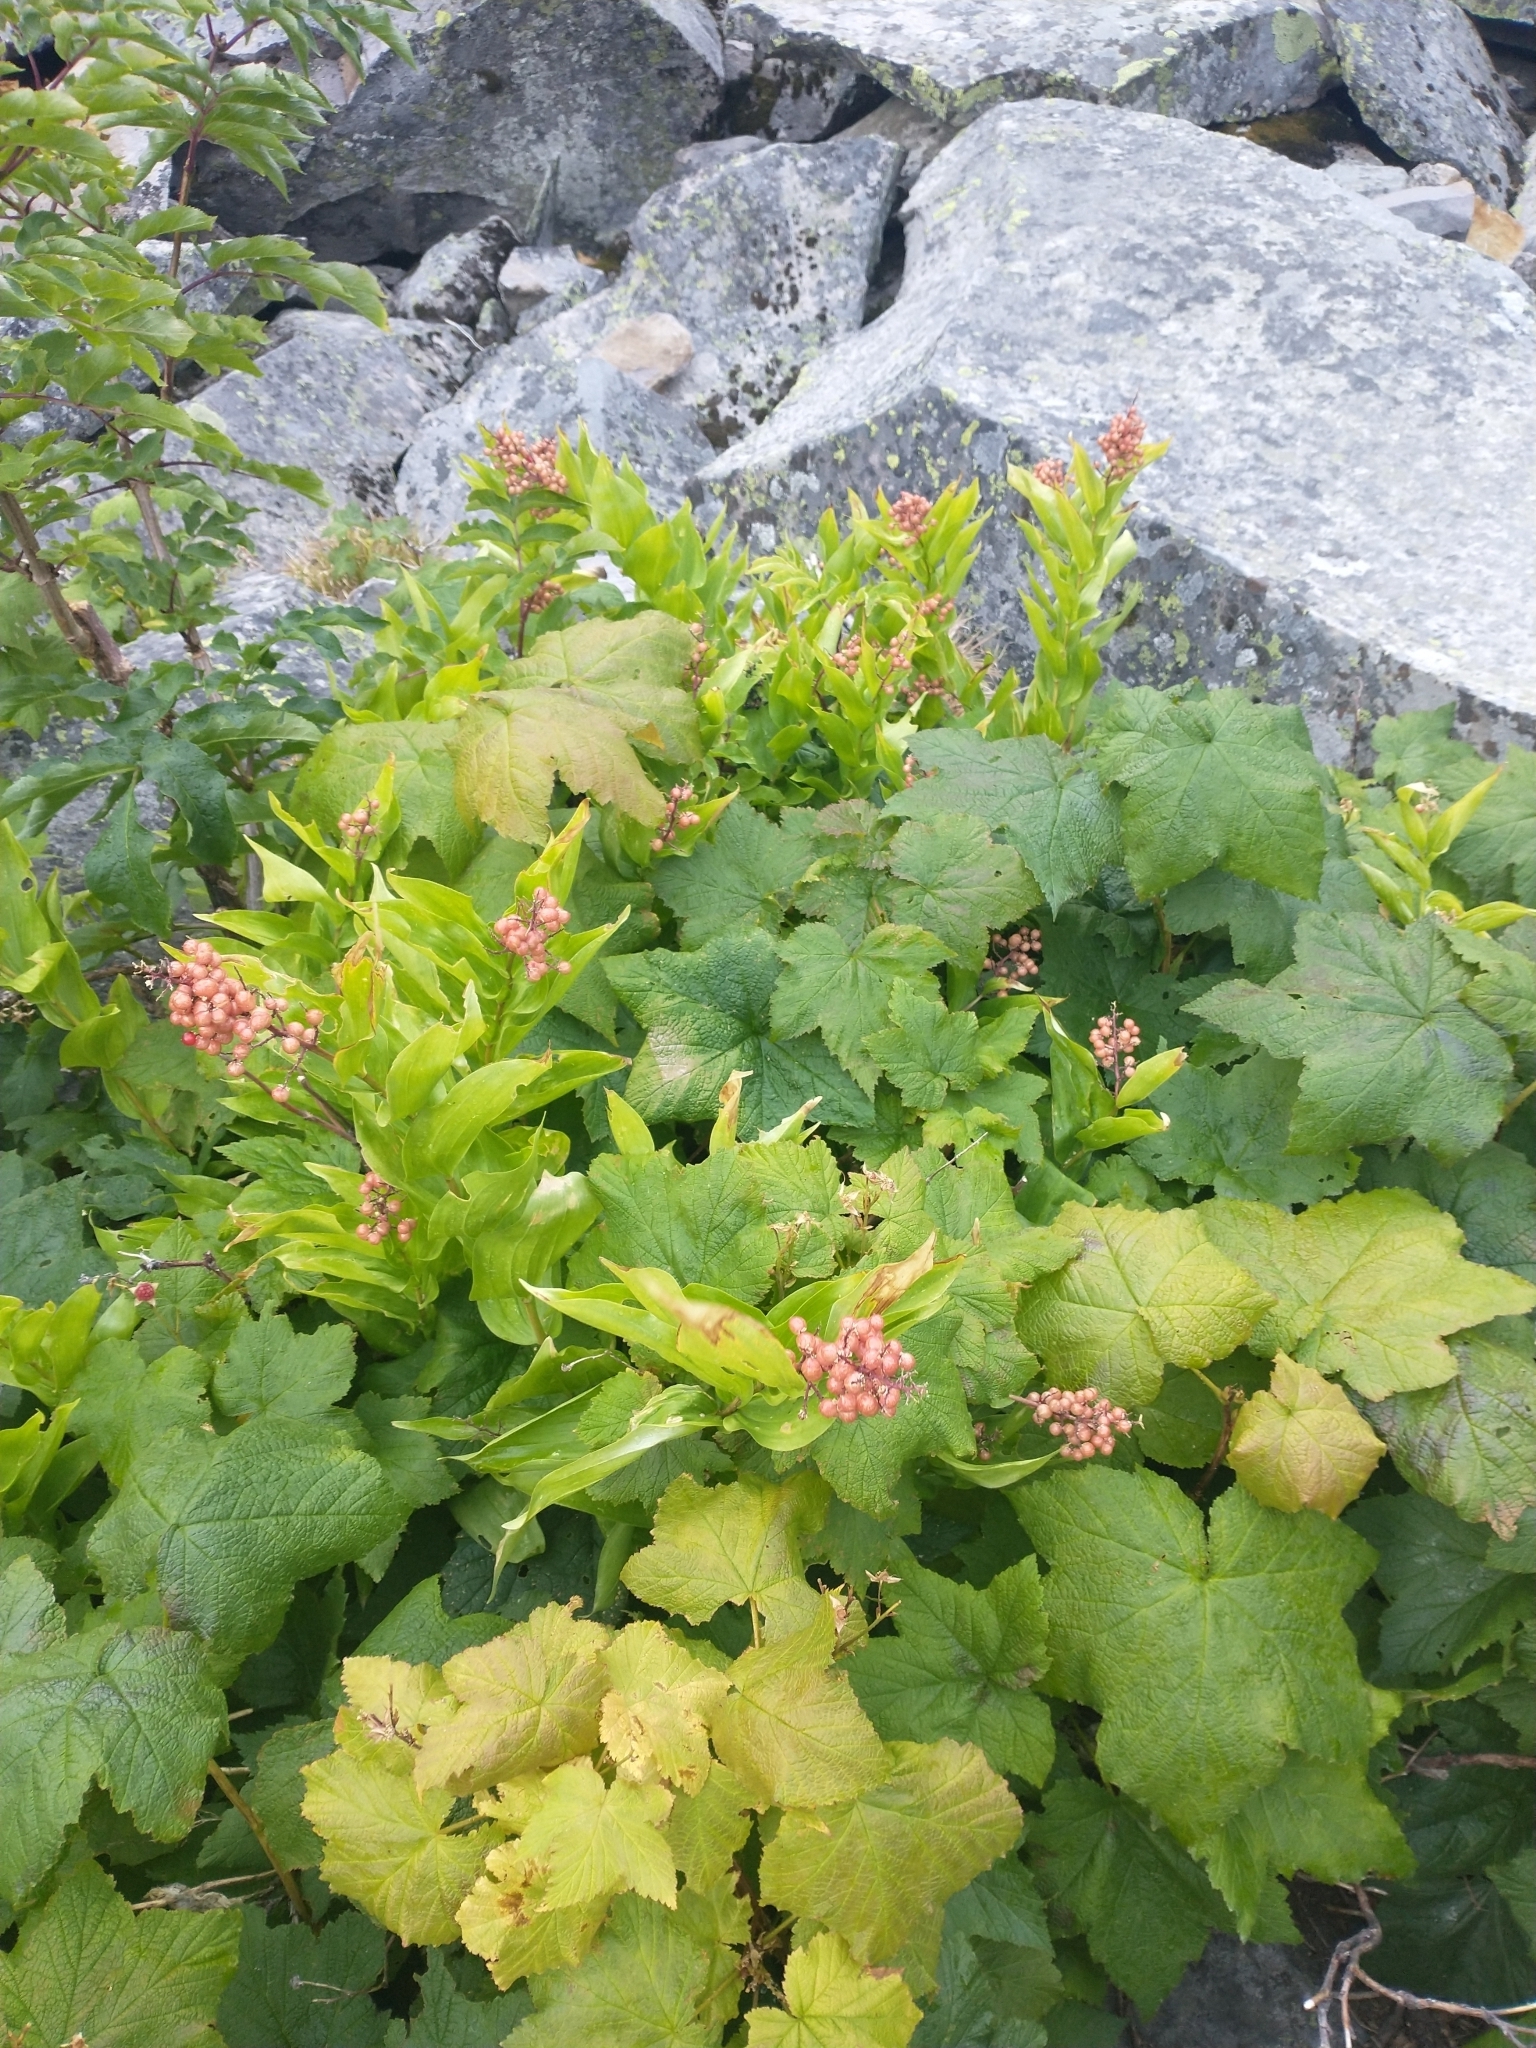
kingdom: Plantae
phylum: Tracheophyta
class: Liliopsida
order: Asparagales
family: Asparagaceae
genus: Maianthemum
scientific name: Maianthemum racemosum
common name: False spikenard
